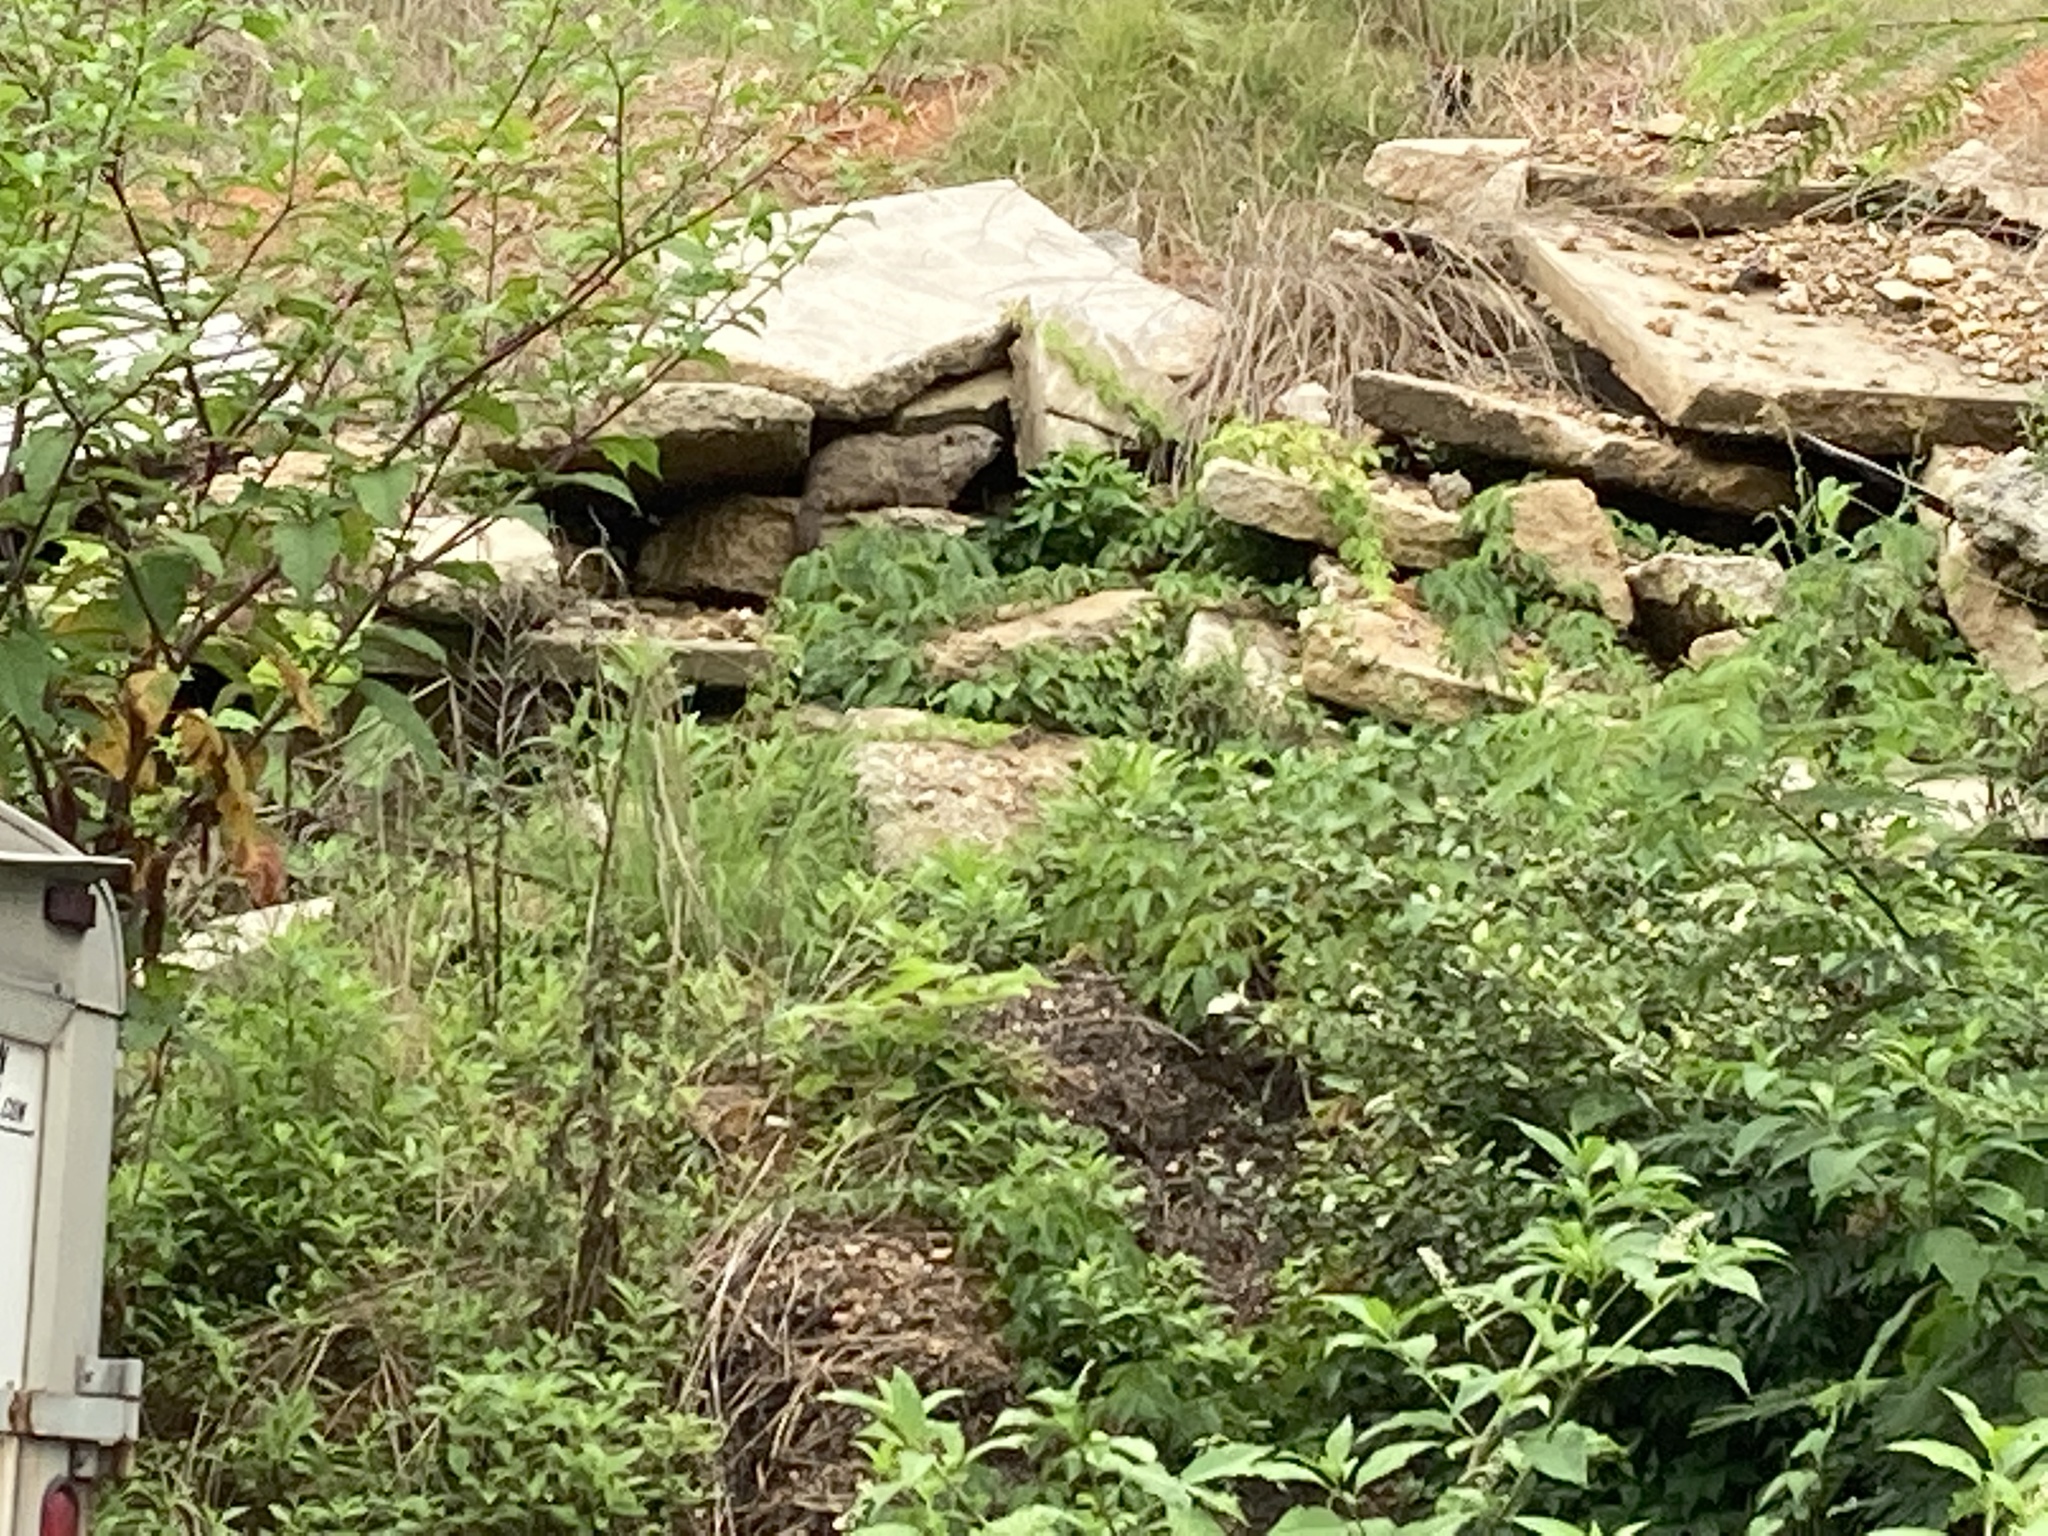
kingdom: Animalia
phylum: Chordata
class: Mammalia
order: Rodentia
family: Sciuridae
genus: Marmota
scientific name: Marmota monax
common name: Groundhog
